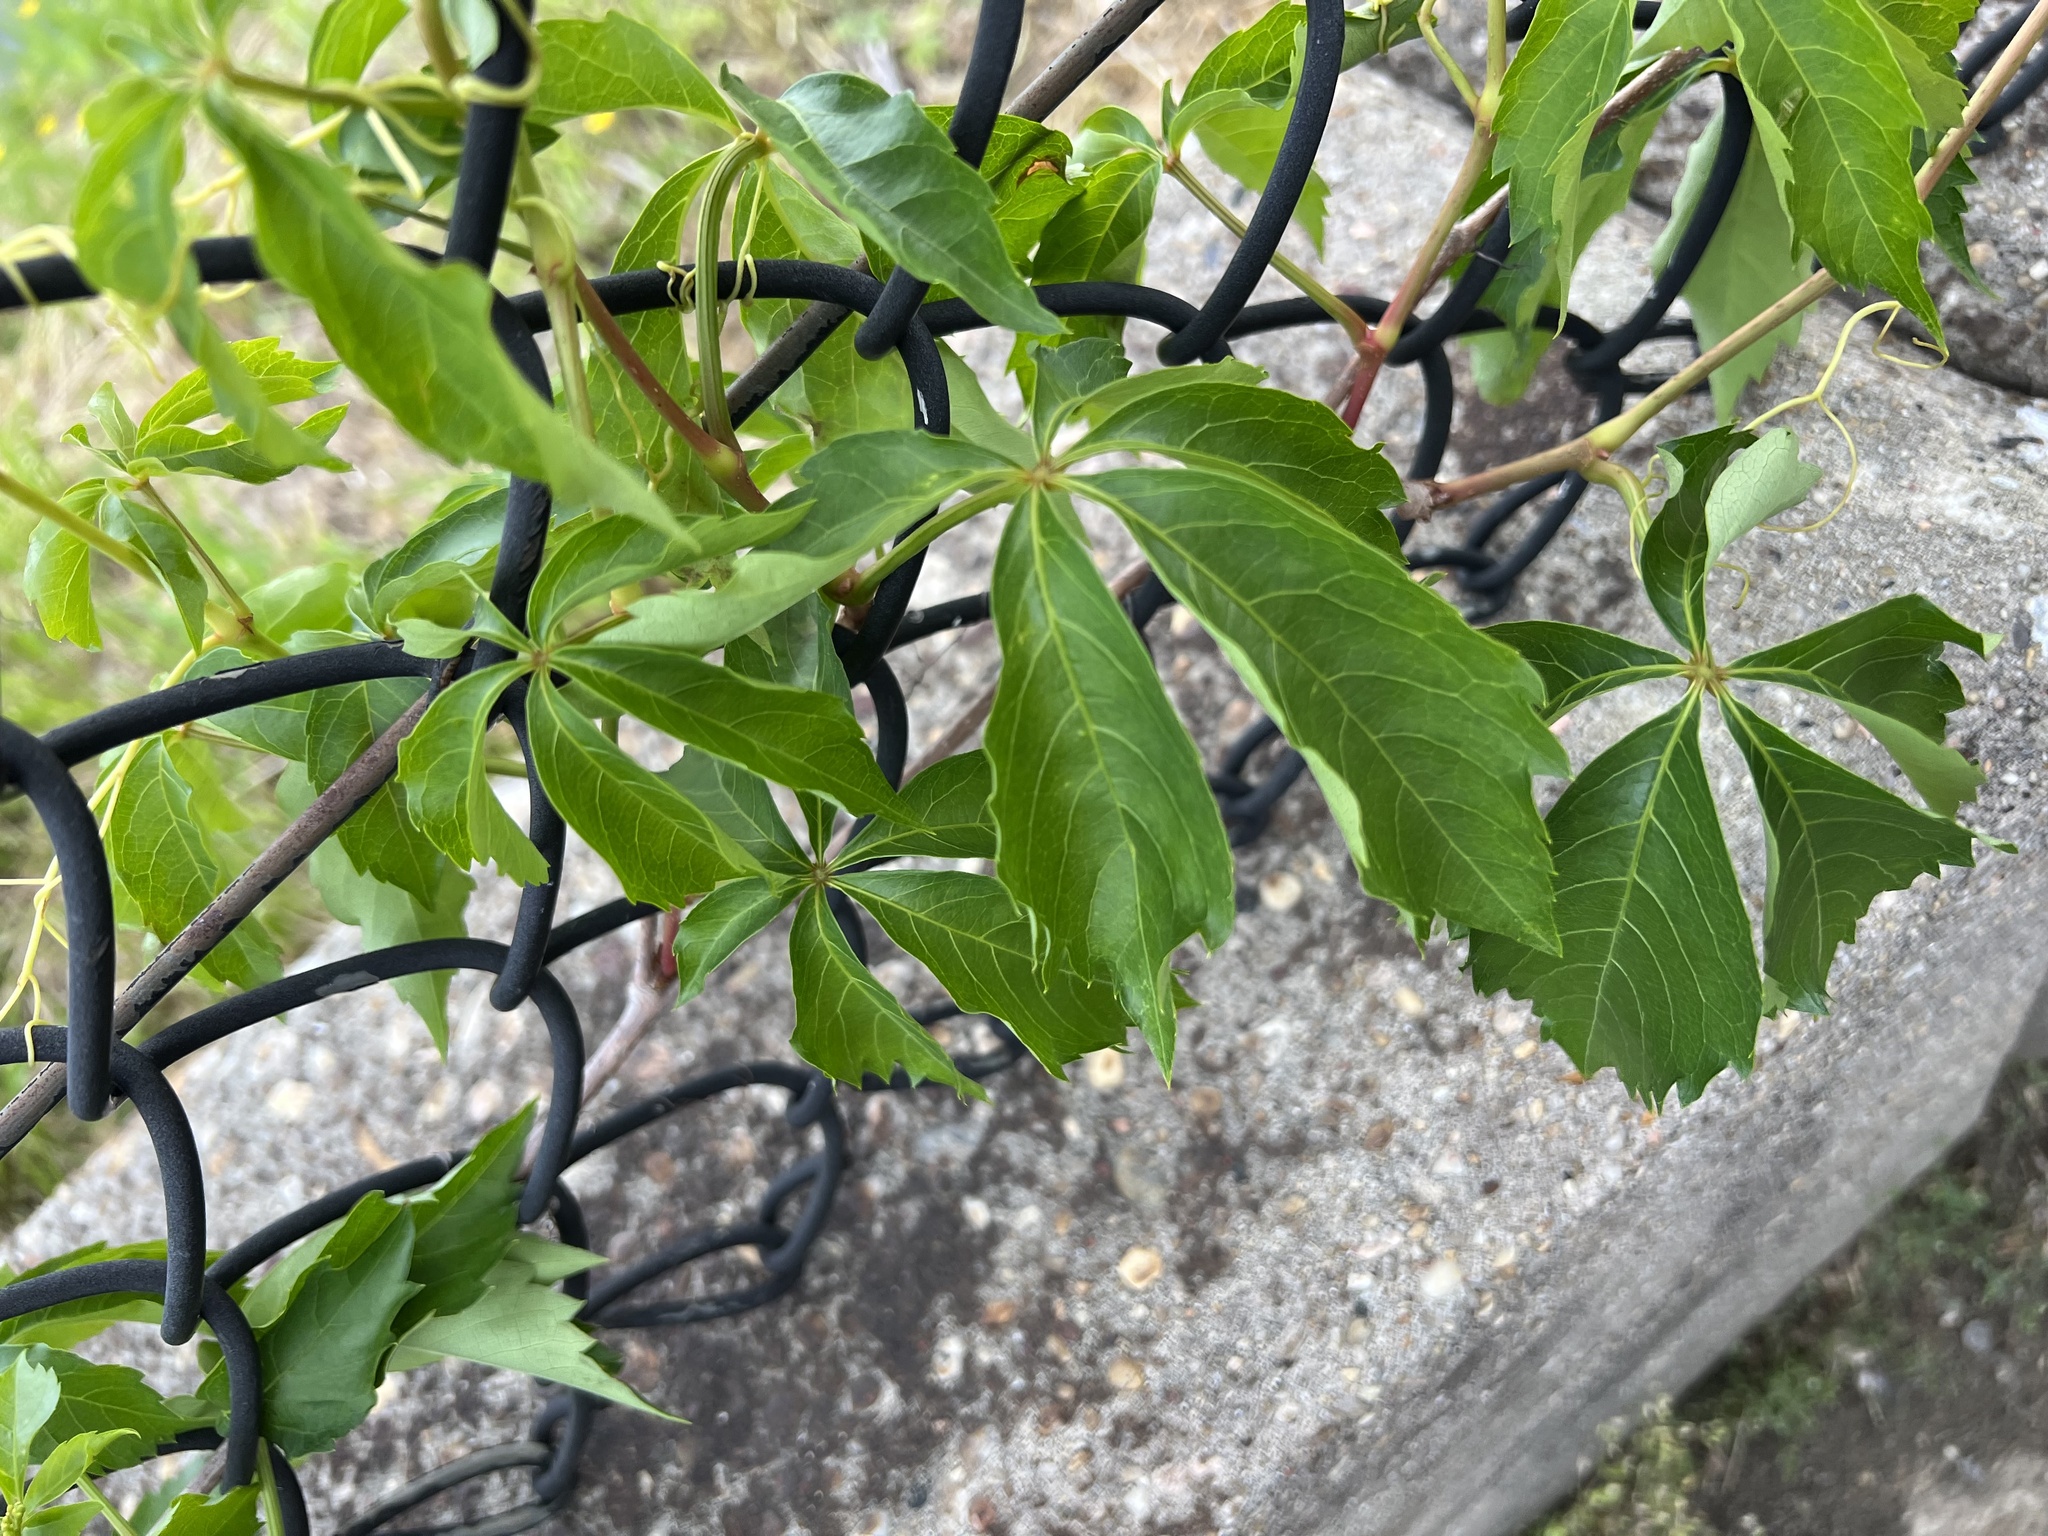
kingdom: Plantae
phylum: Tracheophyta
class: Magnoliopsida
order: Vitales
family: Vitaceae
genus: Parthenocissus
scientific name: Parthenocissus quinquefolia
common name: Virginia-creeper
